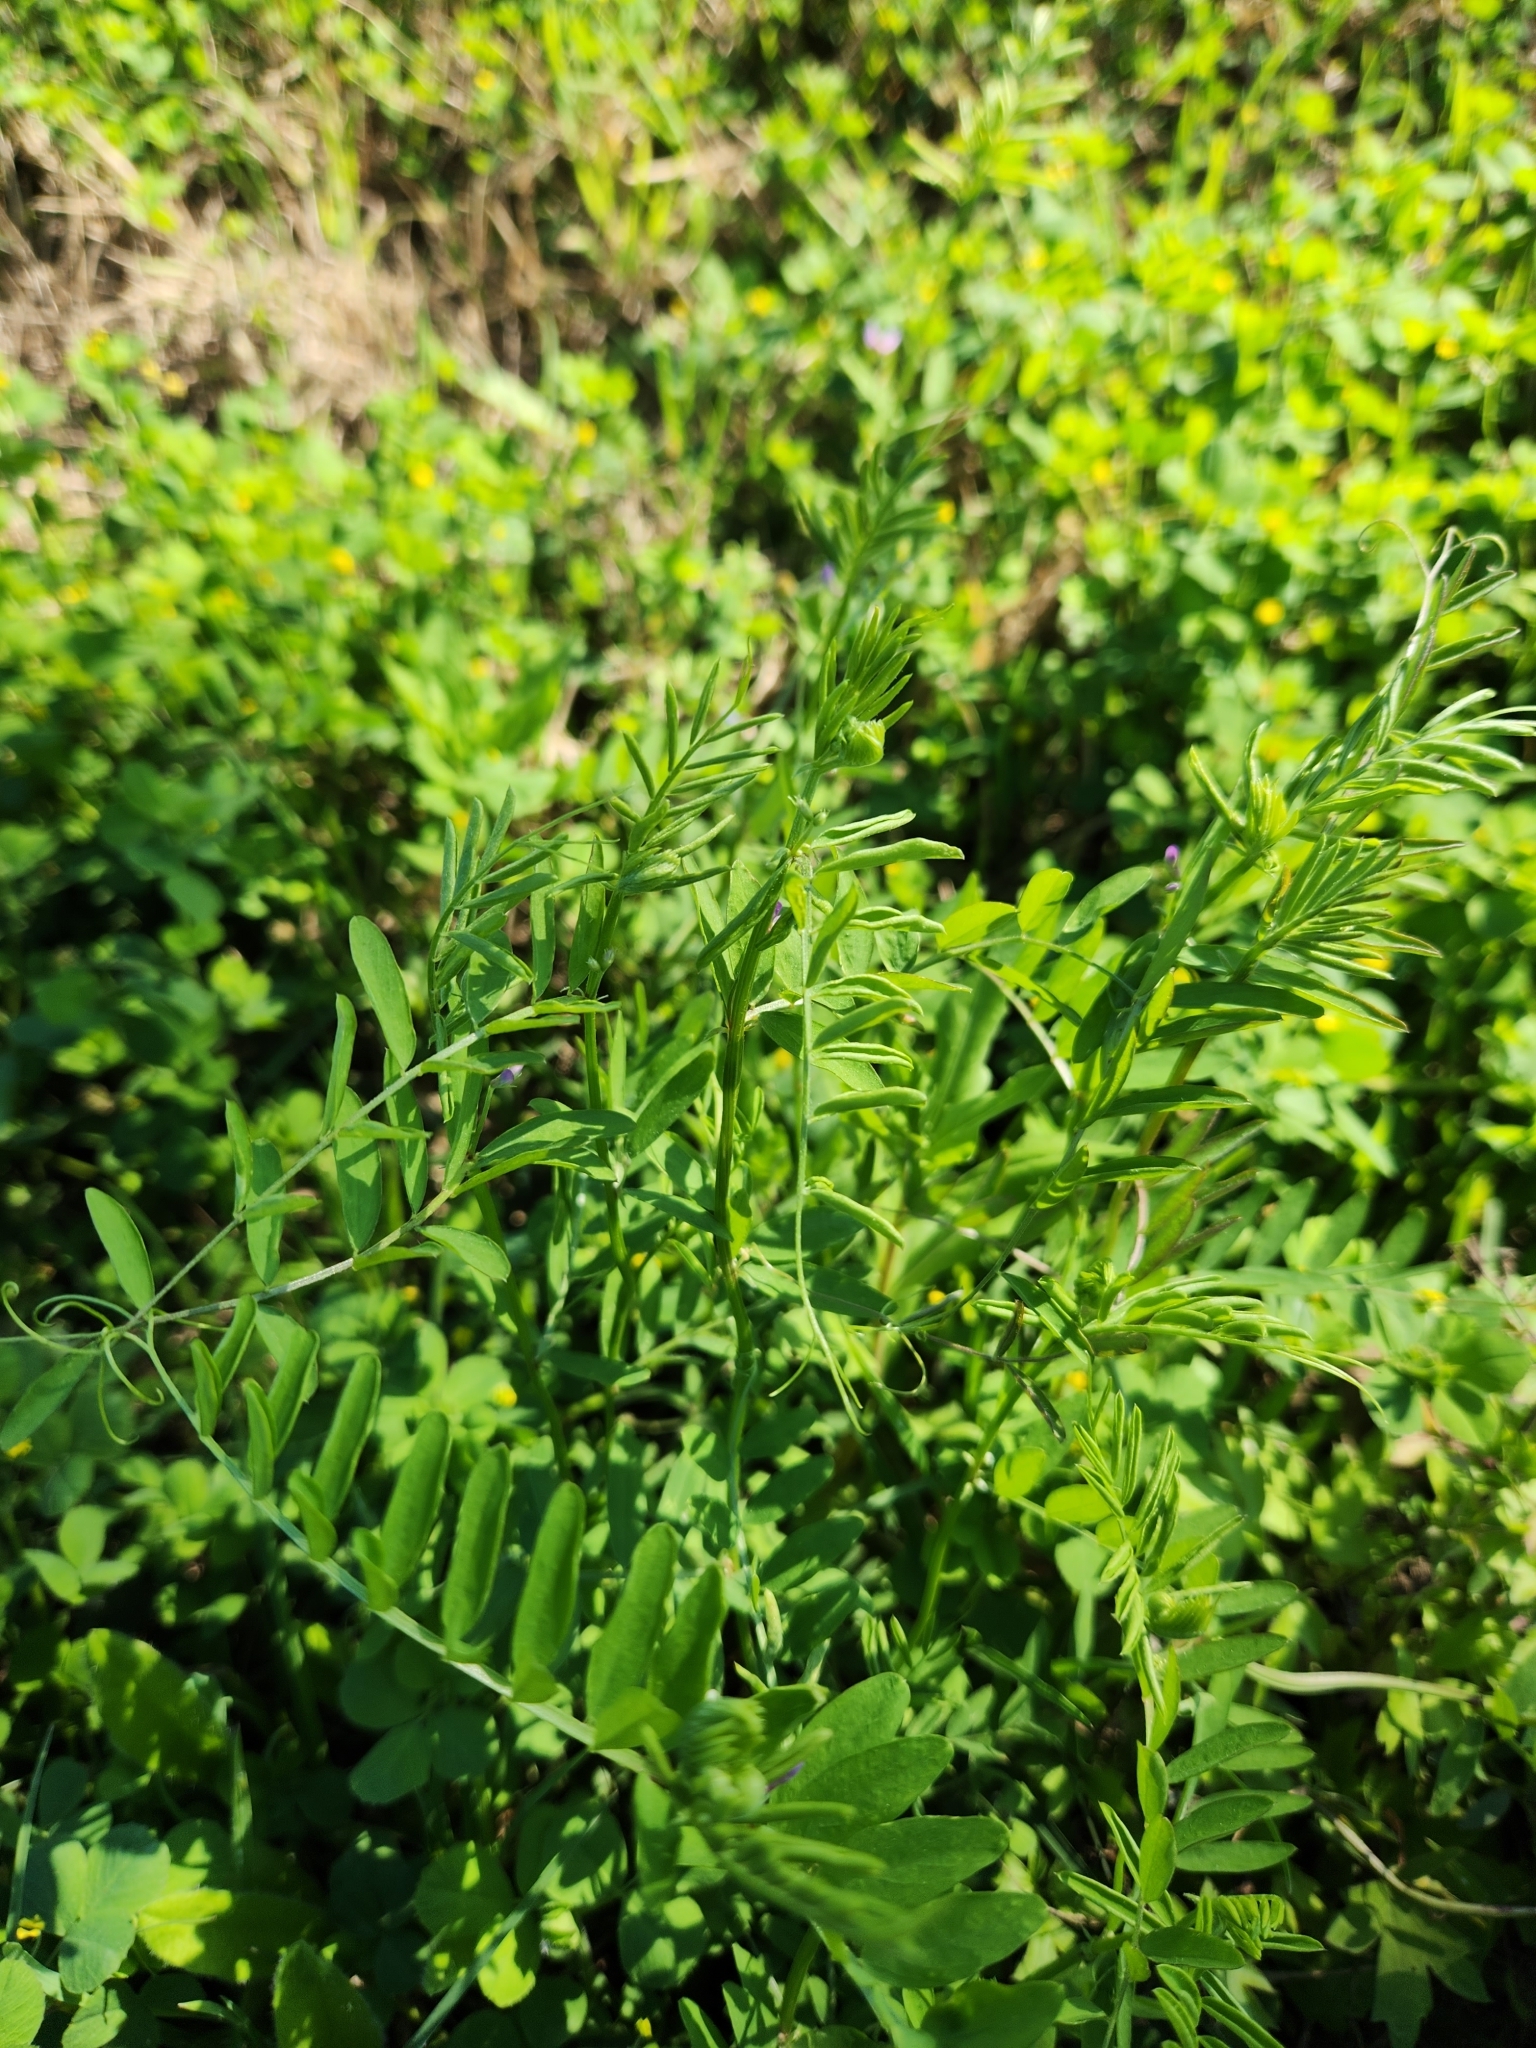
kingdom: Plantae
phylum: Tracheophyta
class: Magnoliopsida
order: Fabales
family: Fabaceae
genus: Vicia
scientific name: Vicia ludoviciana
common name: Louisiana vetch
